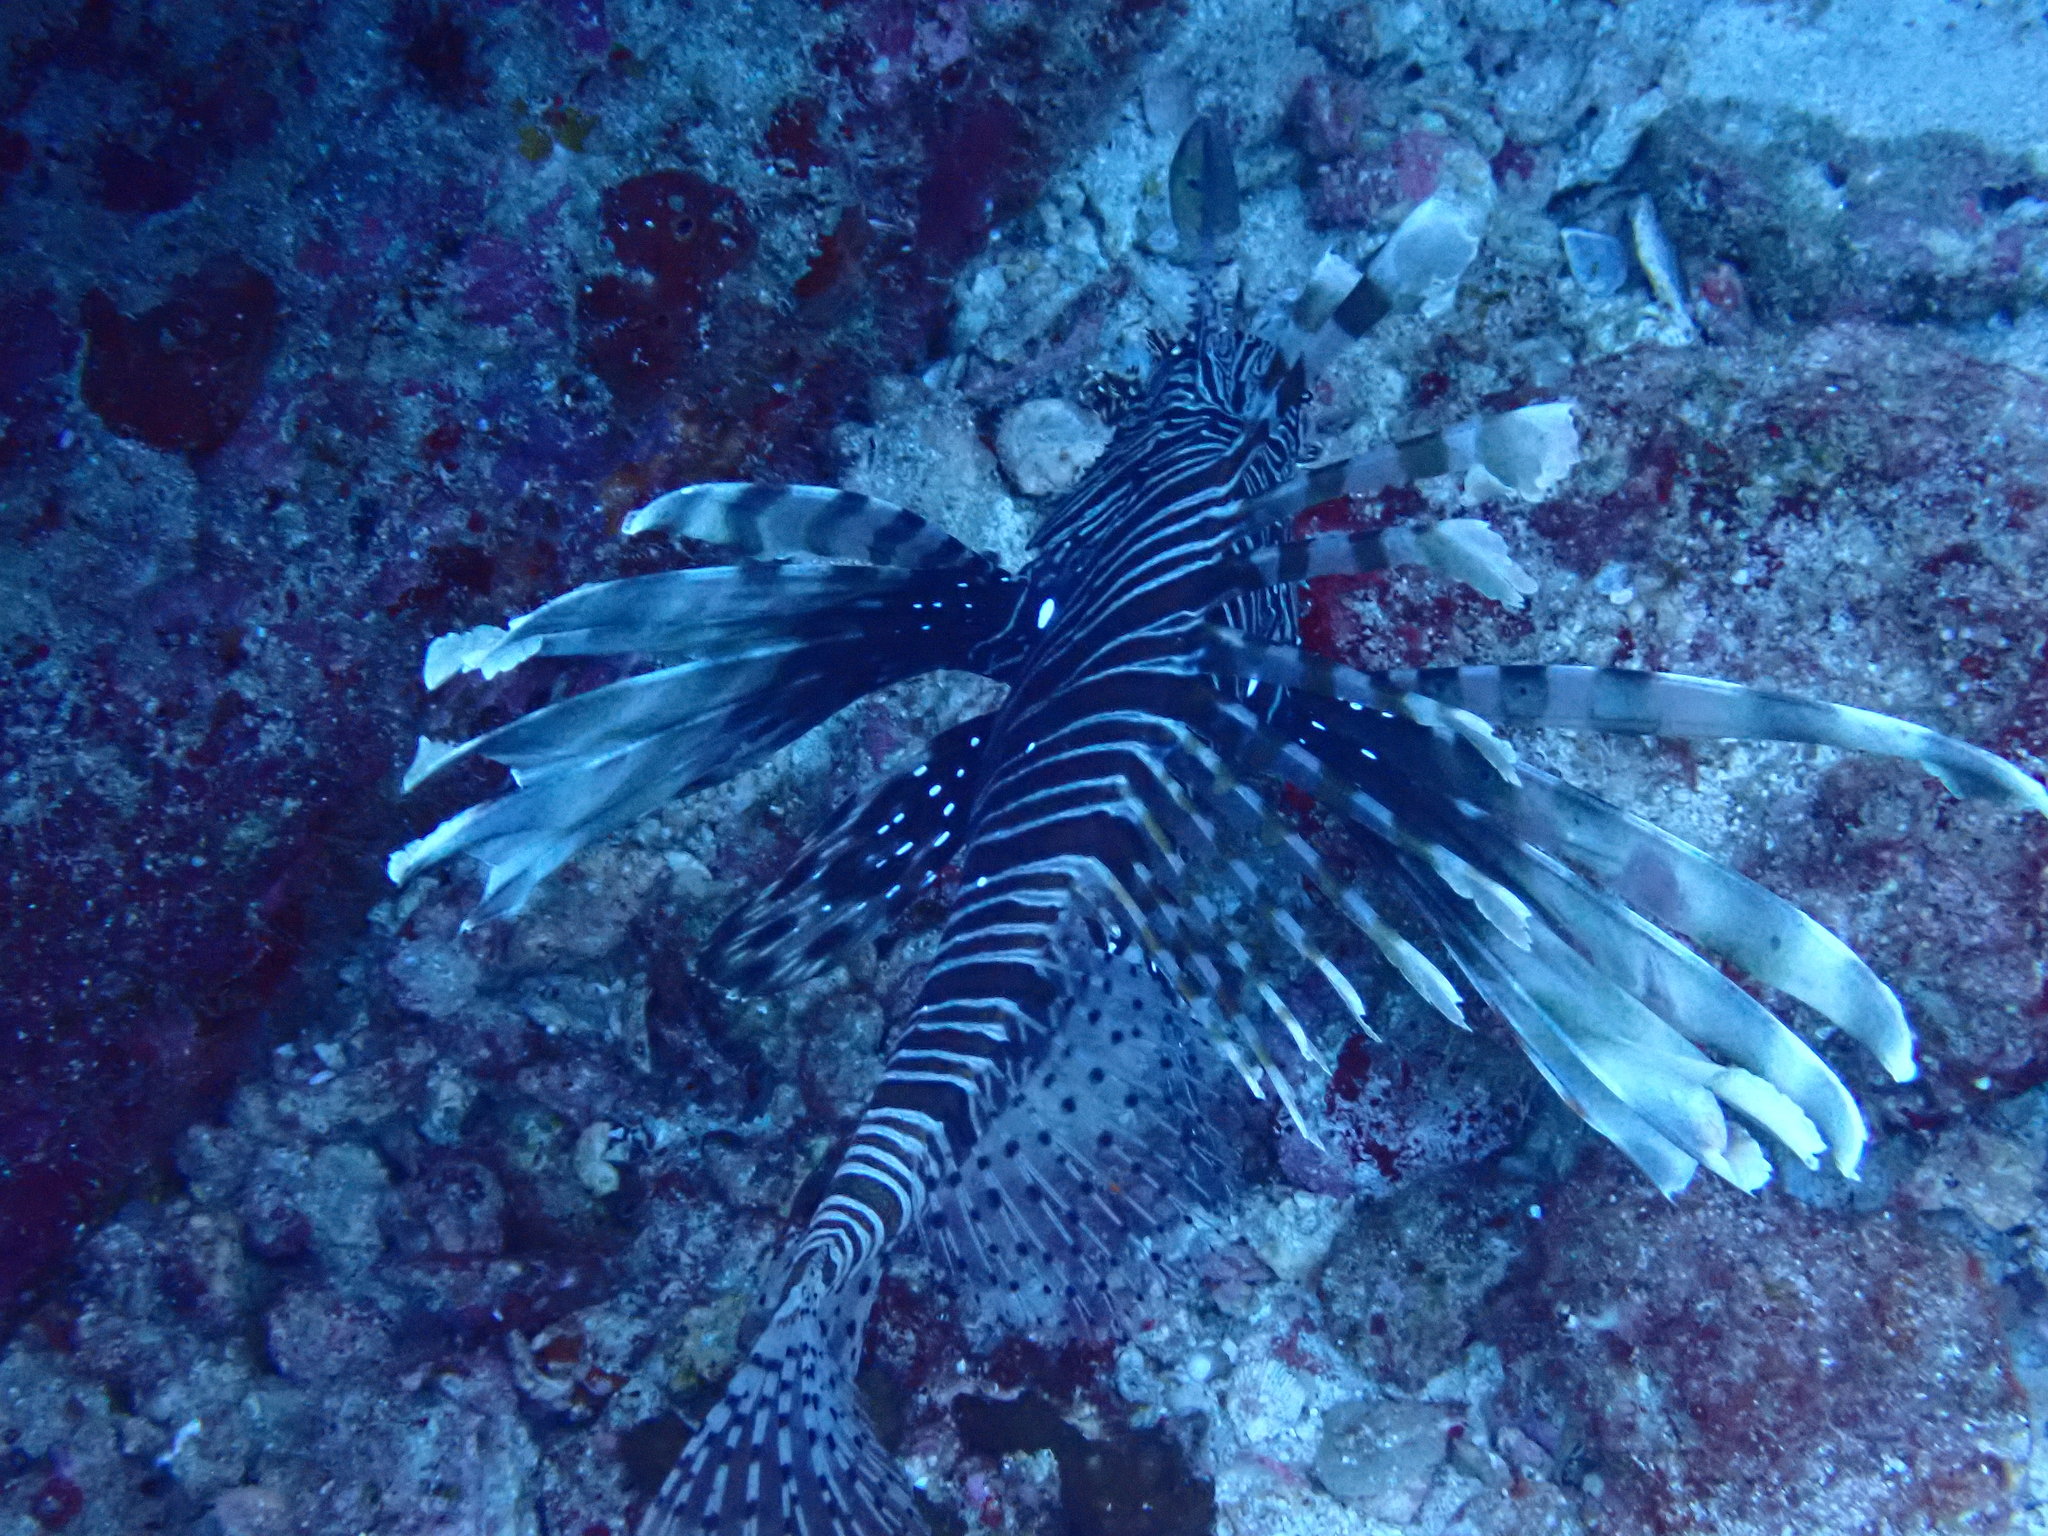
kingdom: Animalia
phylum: Chordata
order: Scorpaeniformes
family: Scorpaenidae
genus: Pterois
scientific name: Pterois miles
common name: Devil firefish
